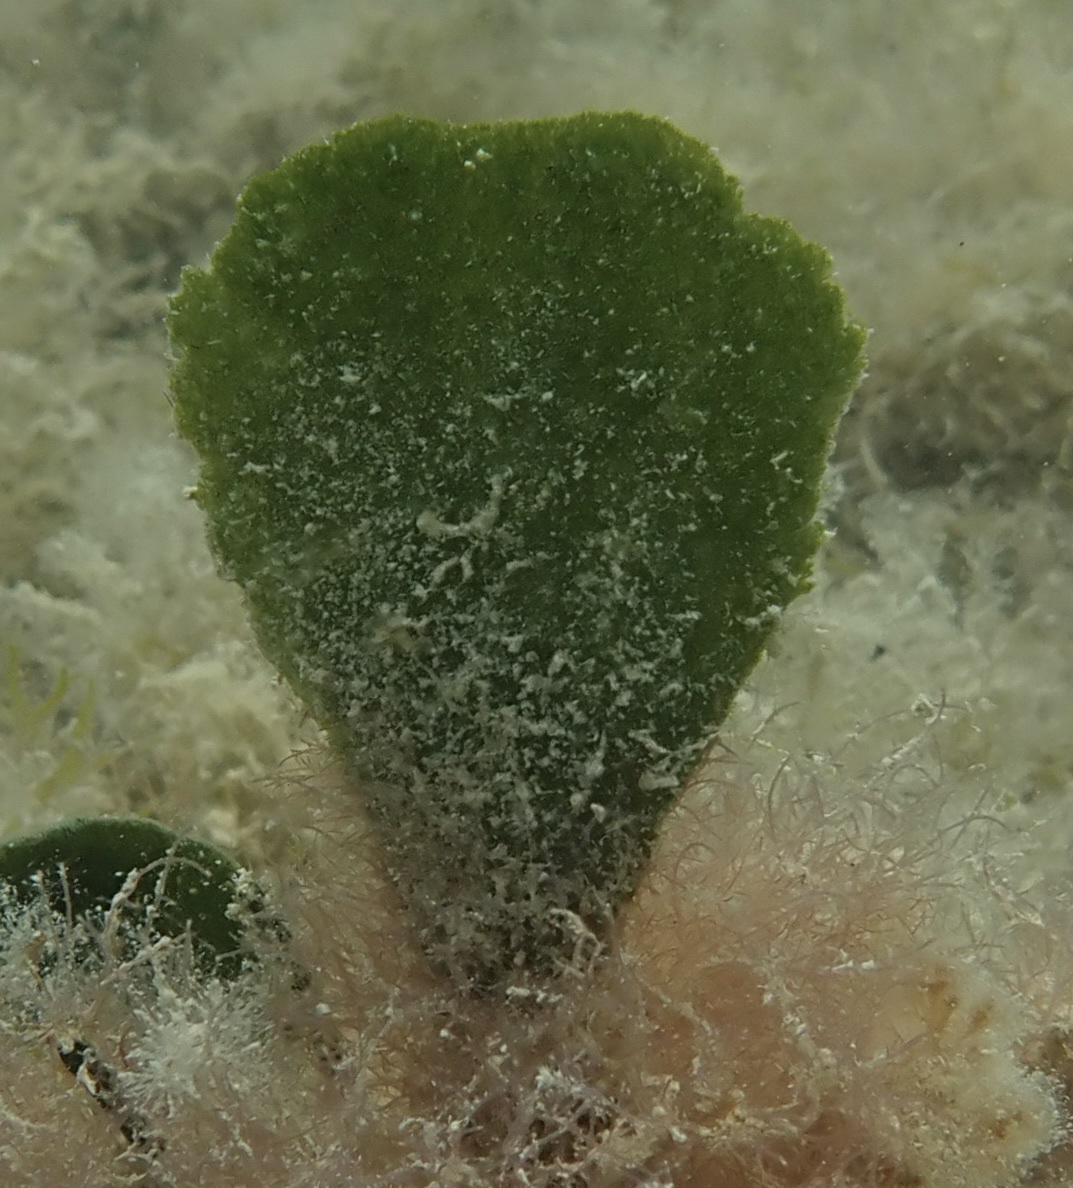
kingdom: Plantae
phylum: Chlorophyta
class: Ulvophyceae
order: Bryopsidales
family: Dichotomosiphonaceae
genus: Avrainvillea
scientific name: Avrainvillea nigricans
